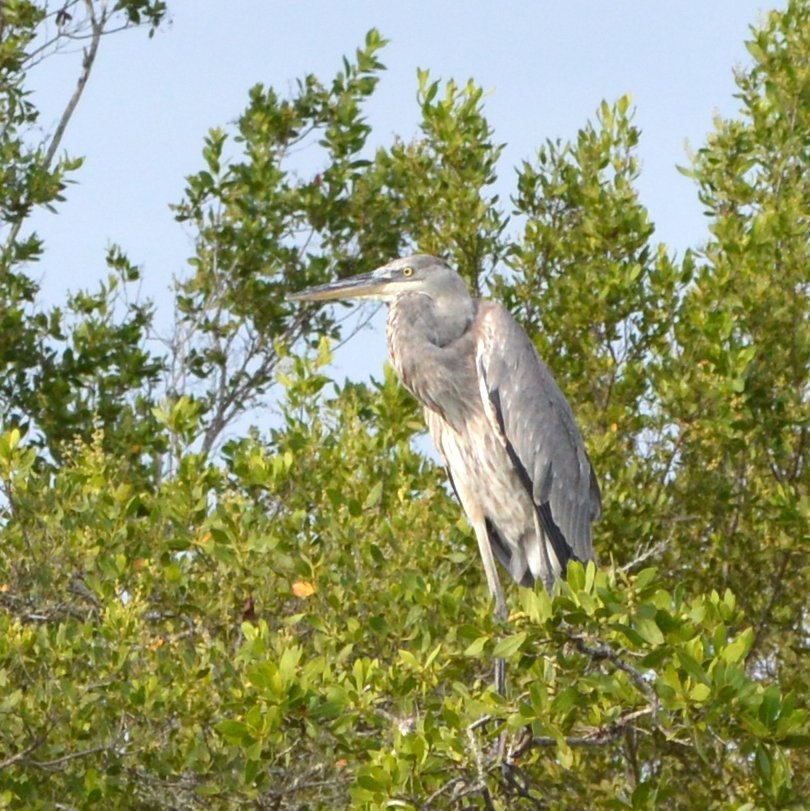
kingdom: Animalia
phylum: Chordata
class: Aves
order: Pelecaniformes
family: Ardeidae
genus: Ardea
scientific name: Ardea herodias
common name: Great blue heron
